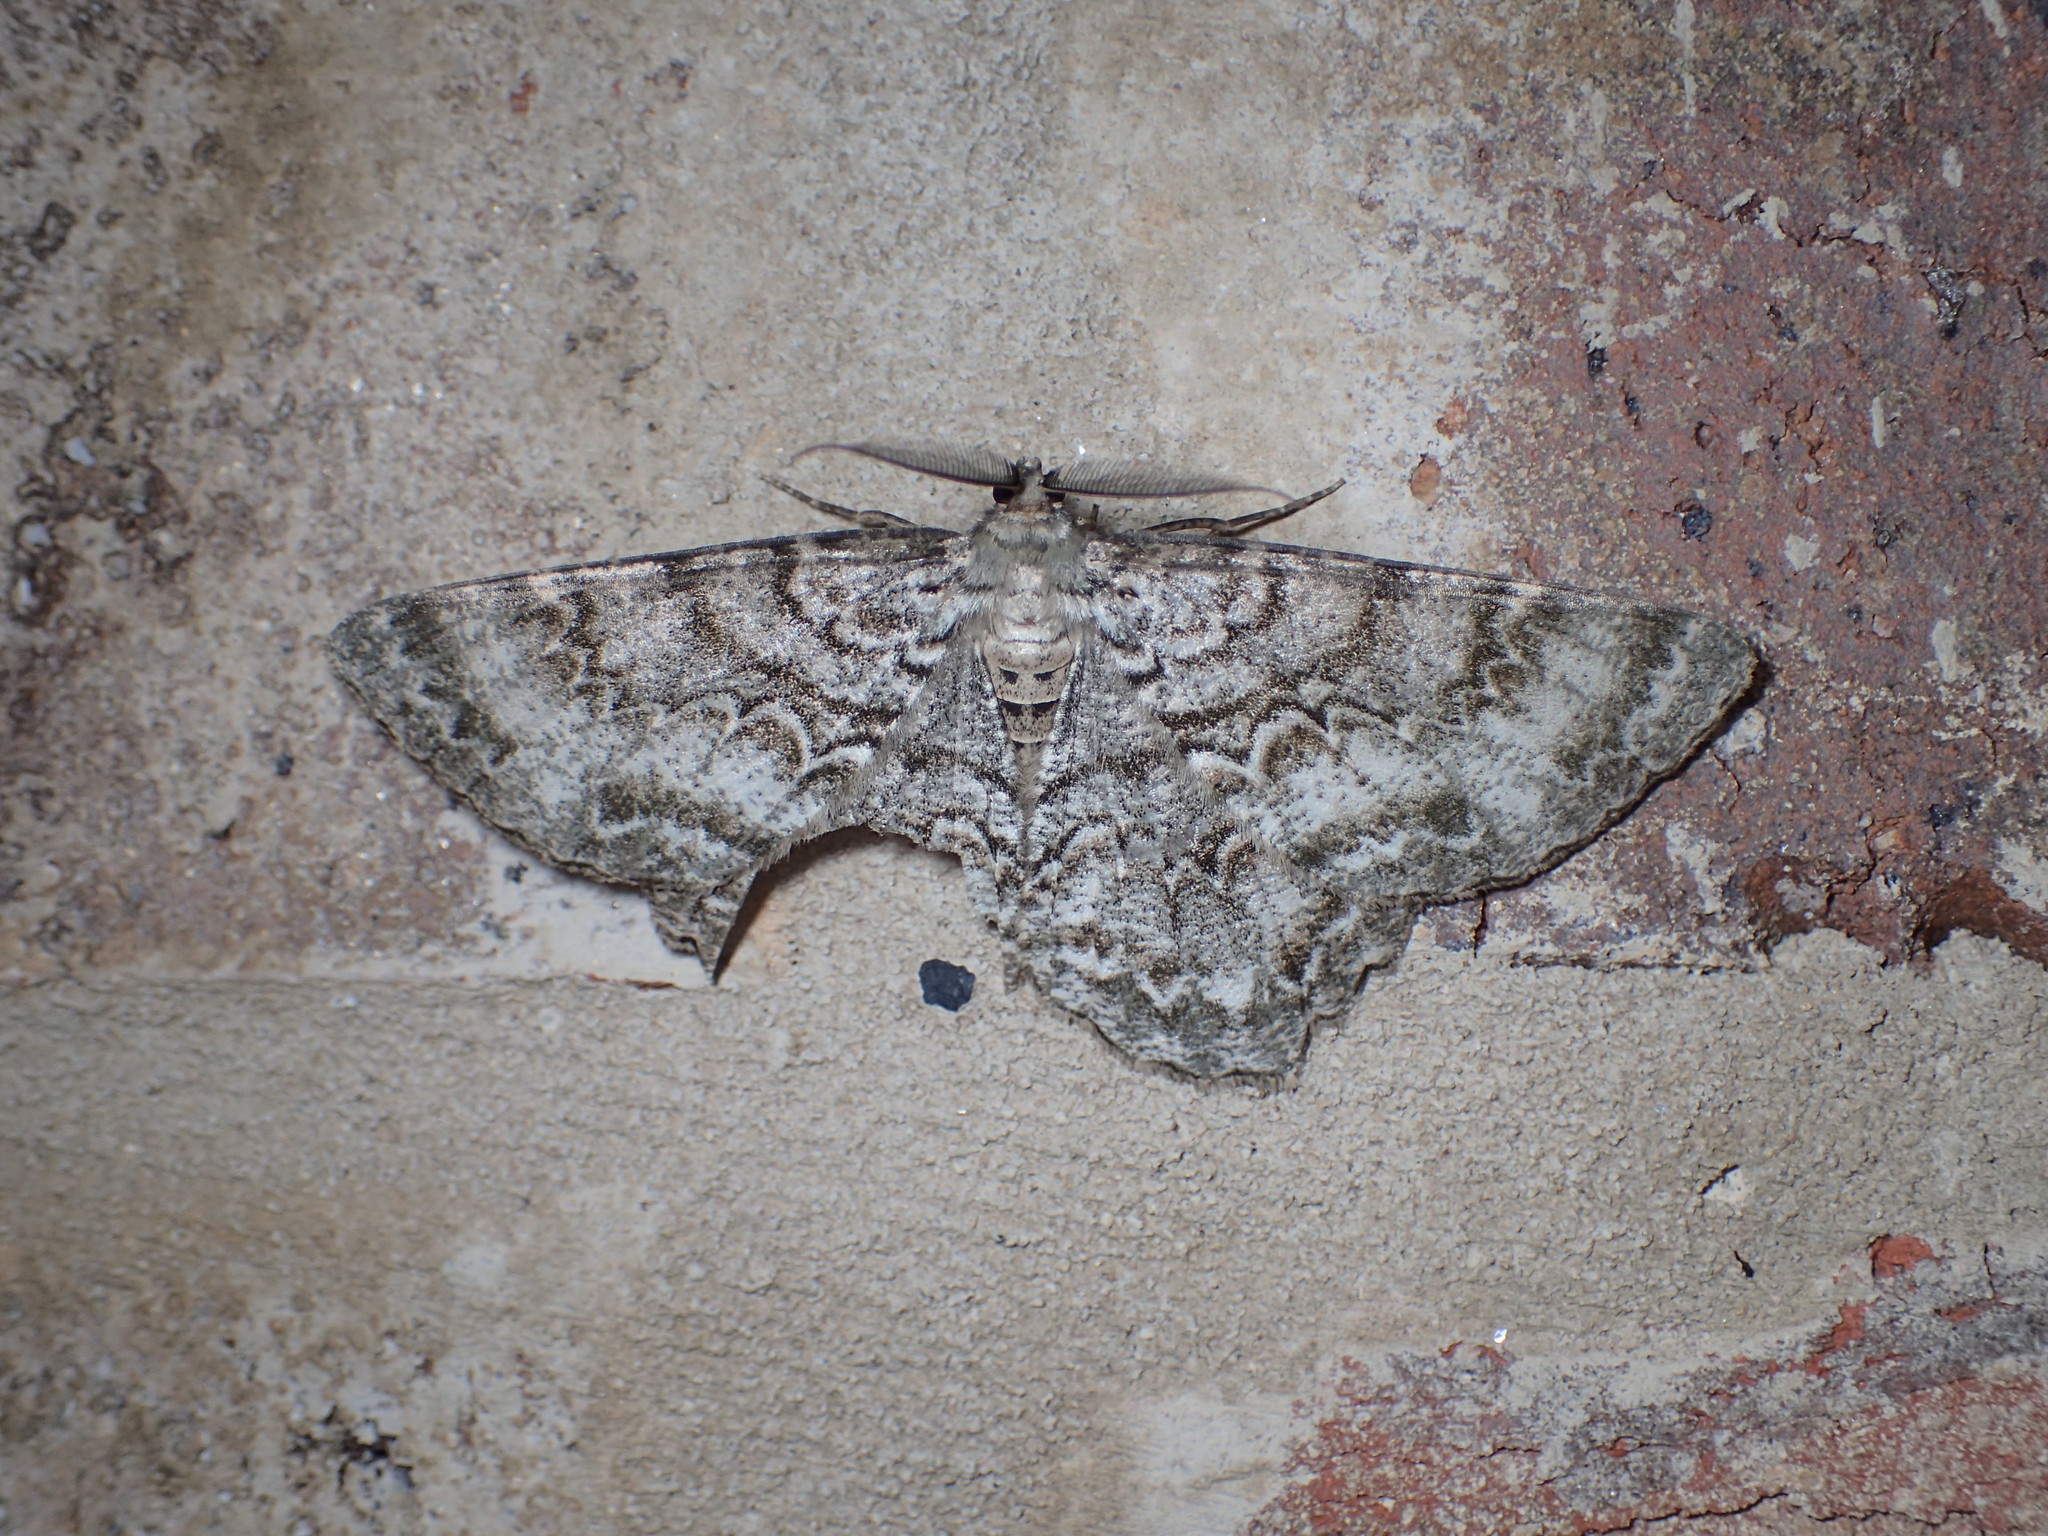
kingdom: Animalia
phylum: Arthropoda
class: Insecta
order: Lepidoptera
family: Geometridae
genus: Epimecis
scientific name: Epimecis hortaria
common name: Tulip-tree beauty
